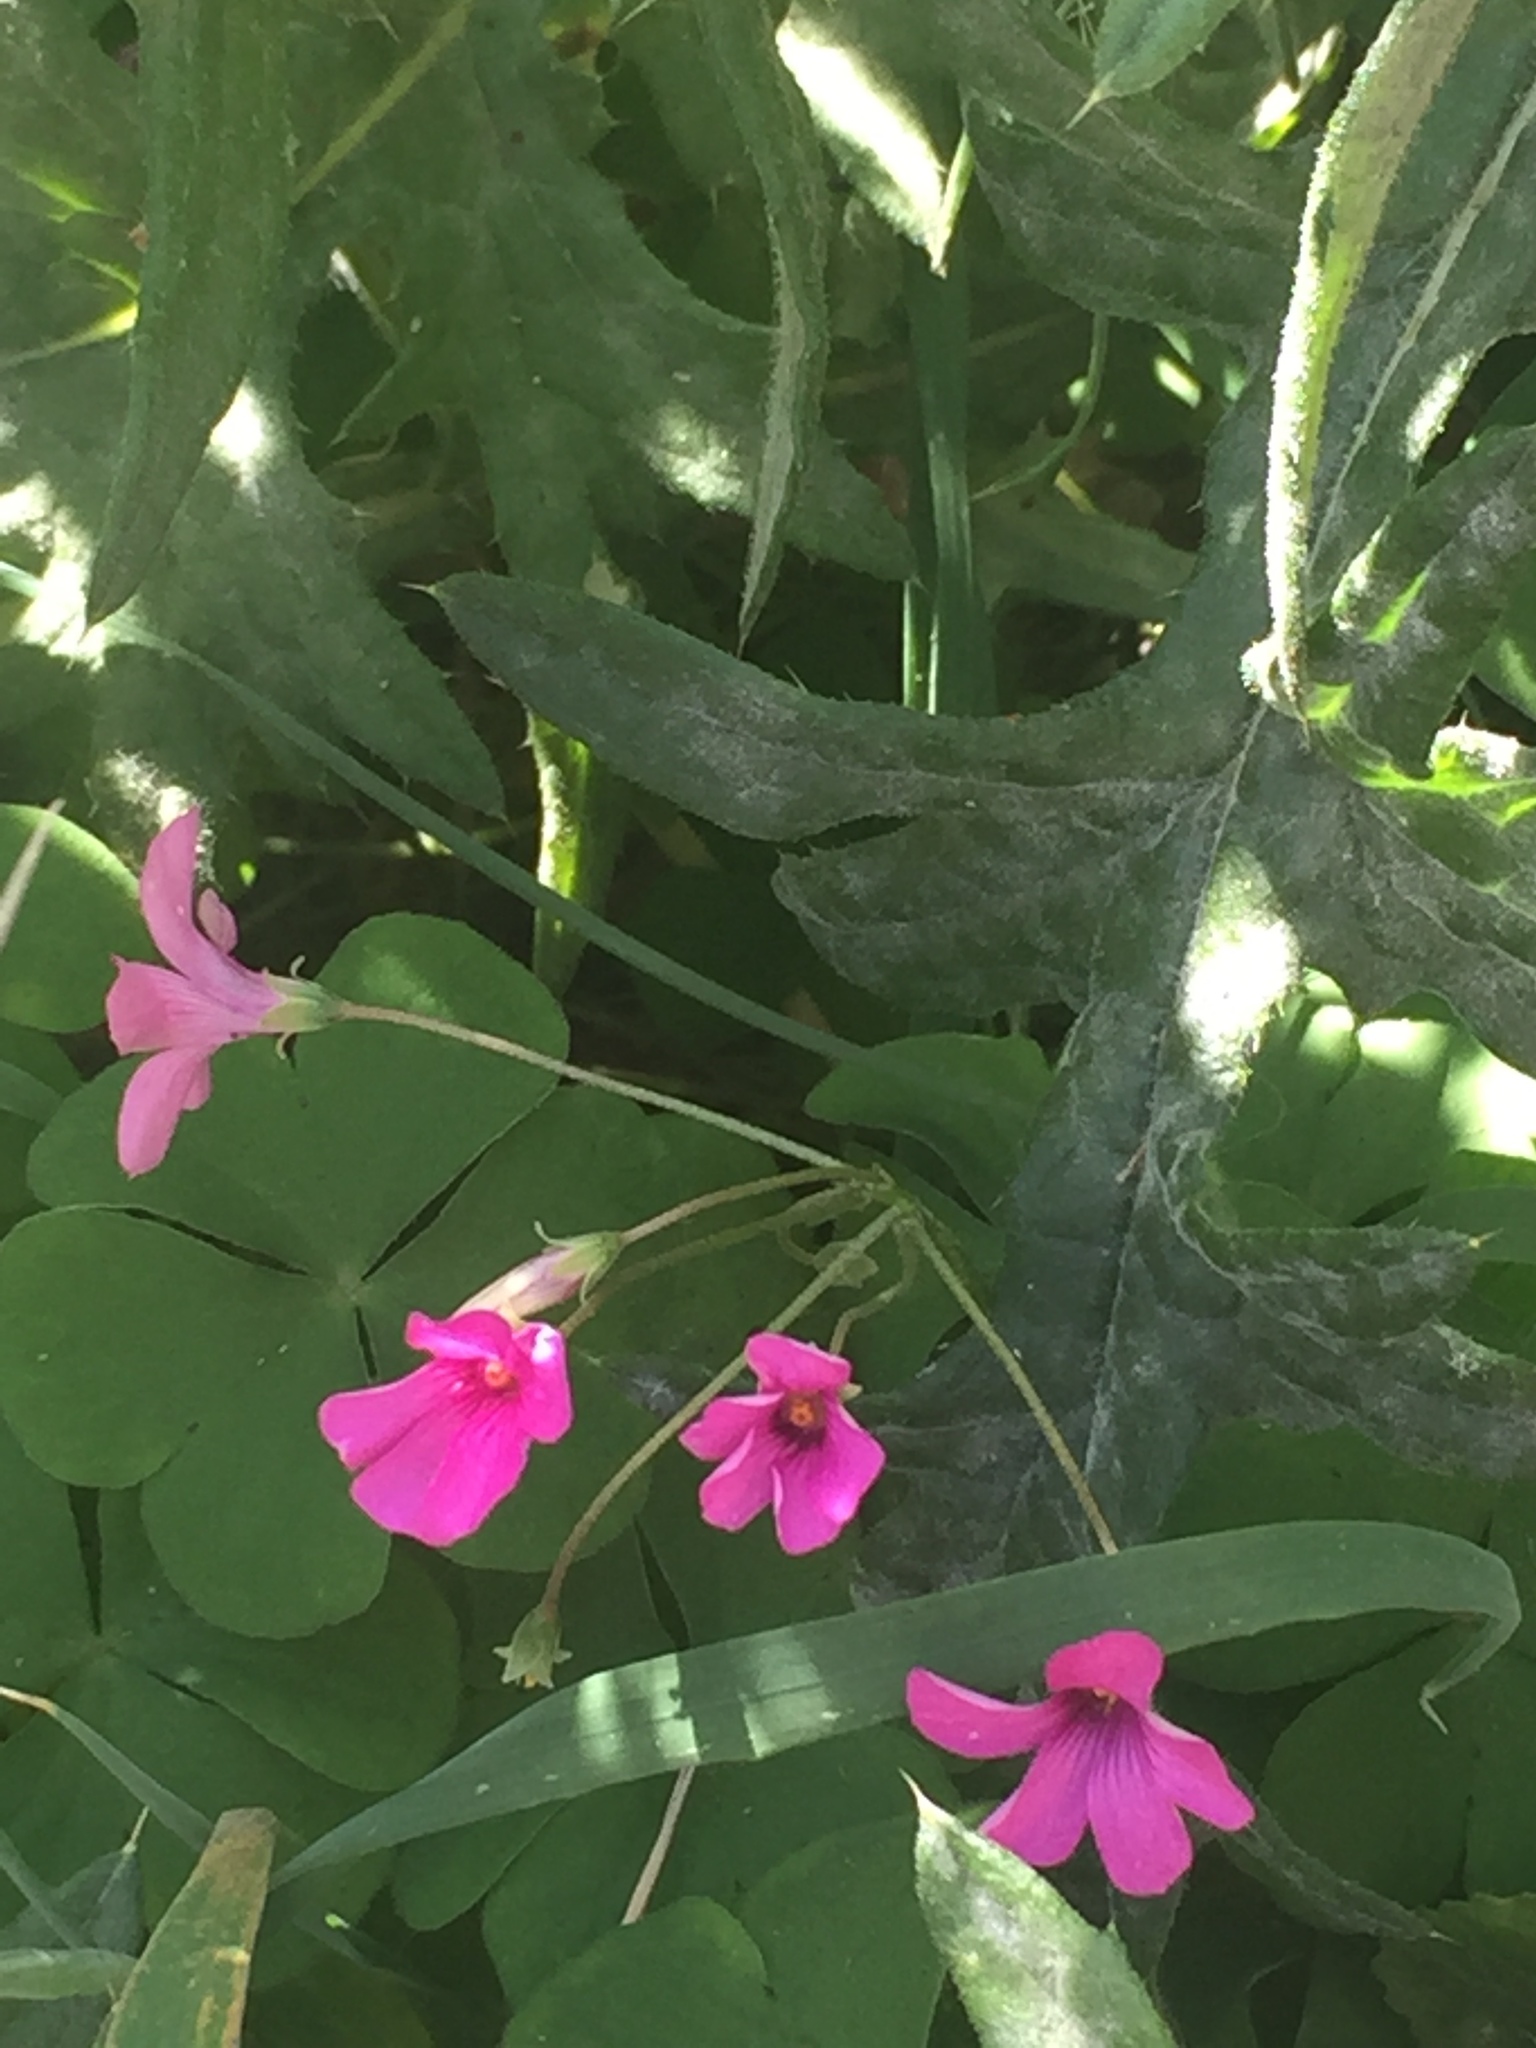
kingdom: Plantae
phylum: Tracheophyta
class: Magnoliopsida
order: Oxalidales
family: Oxalidaceae
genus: Oxalis
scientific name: Oxalis articulata
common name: Pink-sorrel
